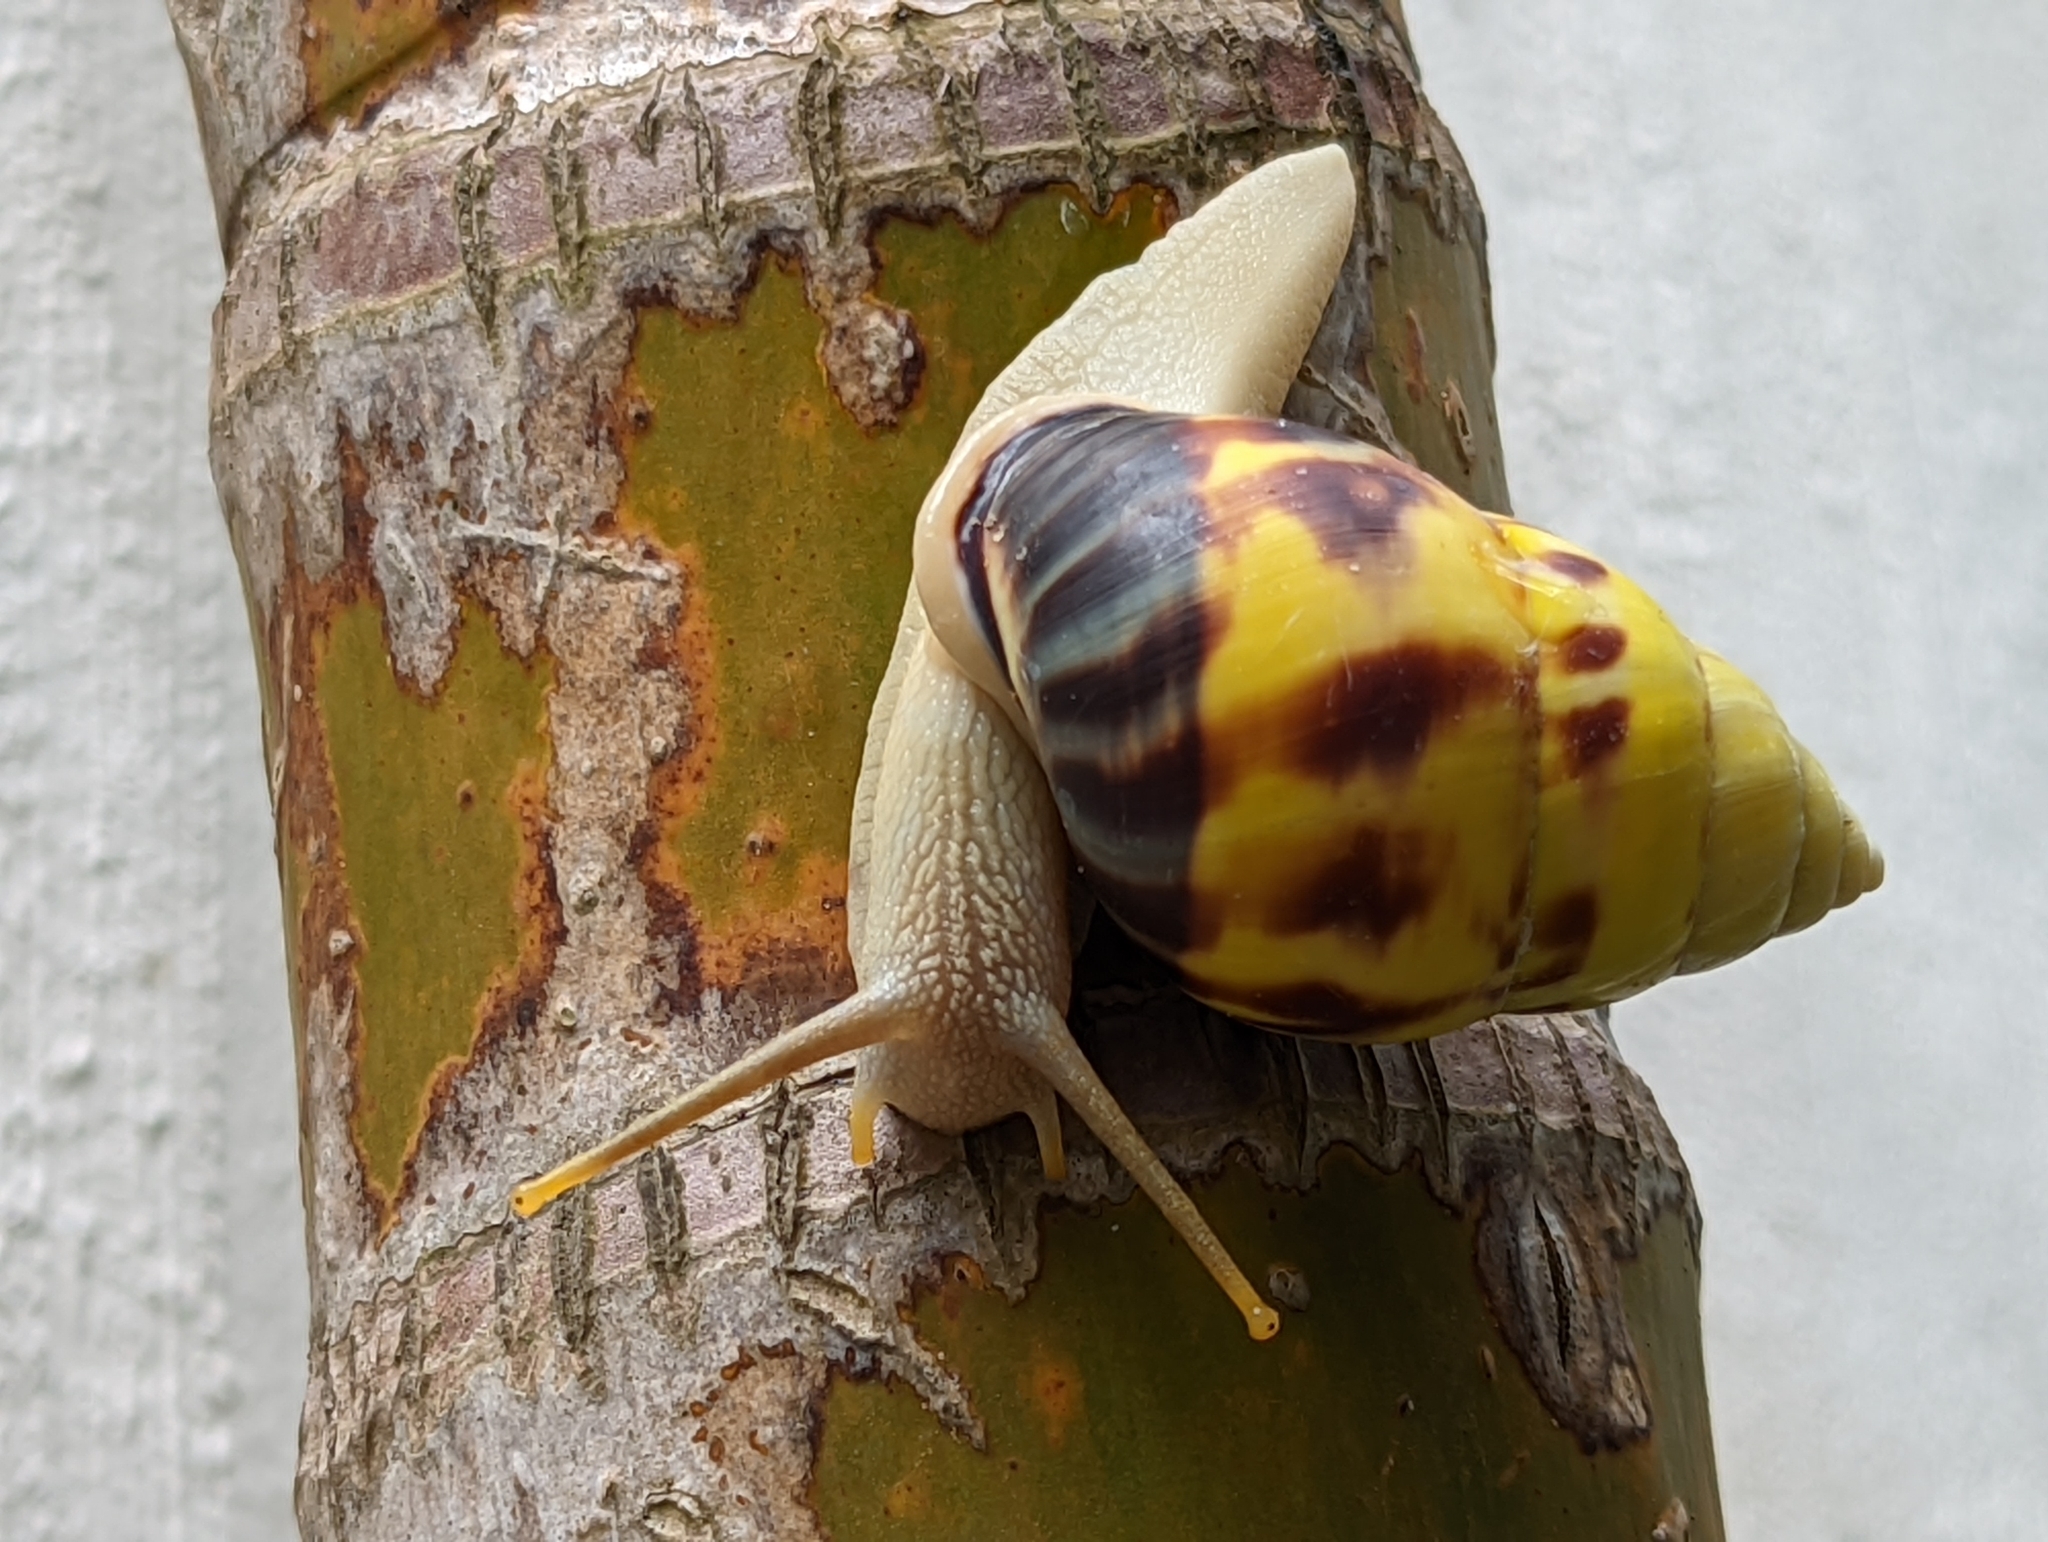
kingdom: Animalia
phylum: Mollusca
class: Gastropoda
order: Stylommatophora
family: Camaenidae
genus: Amphidromus
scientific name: Amphidromus perversus
